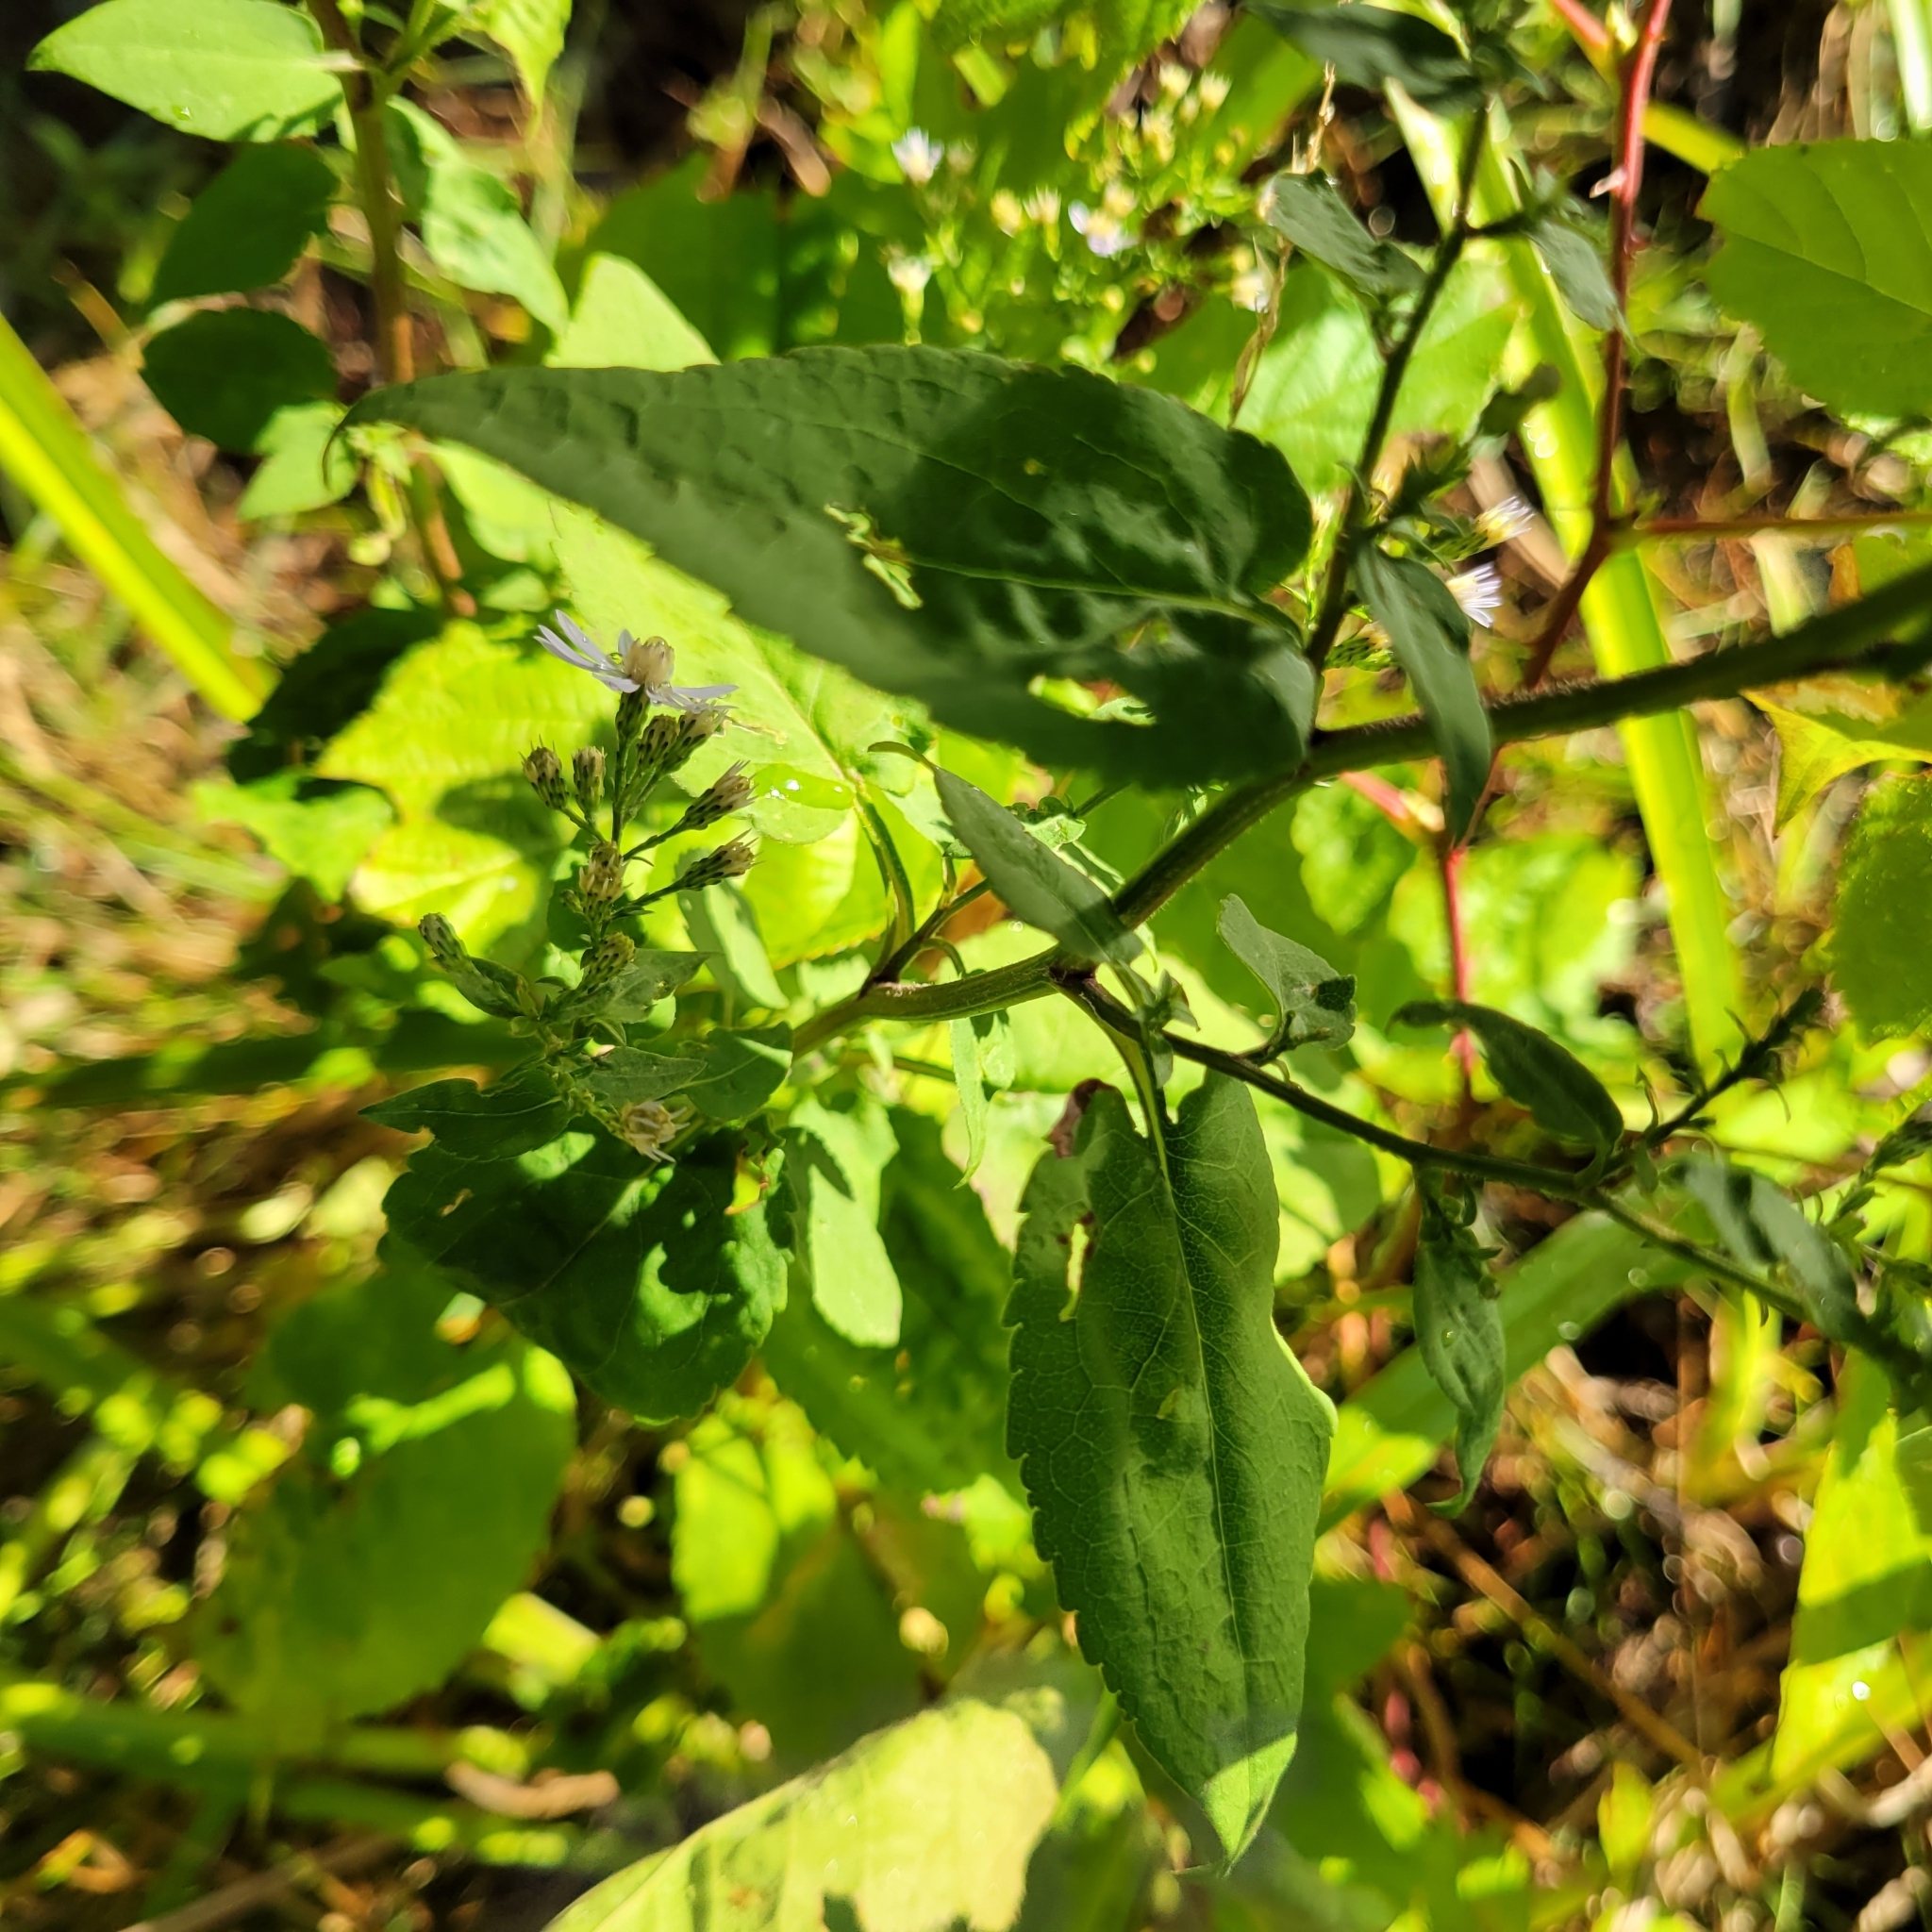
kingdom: Plantae
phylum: Tracheophyta
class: Magnoliopsida
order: Asterales
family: Asteraceae
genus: Symphyotrichum
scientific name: Symphyotrichum cordifolium
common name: Beeweed
